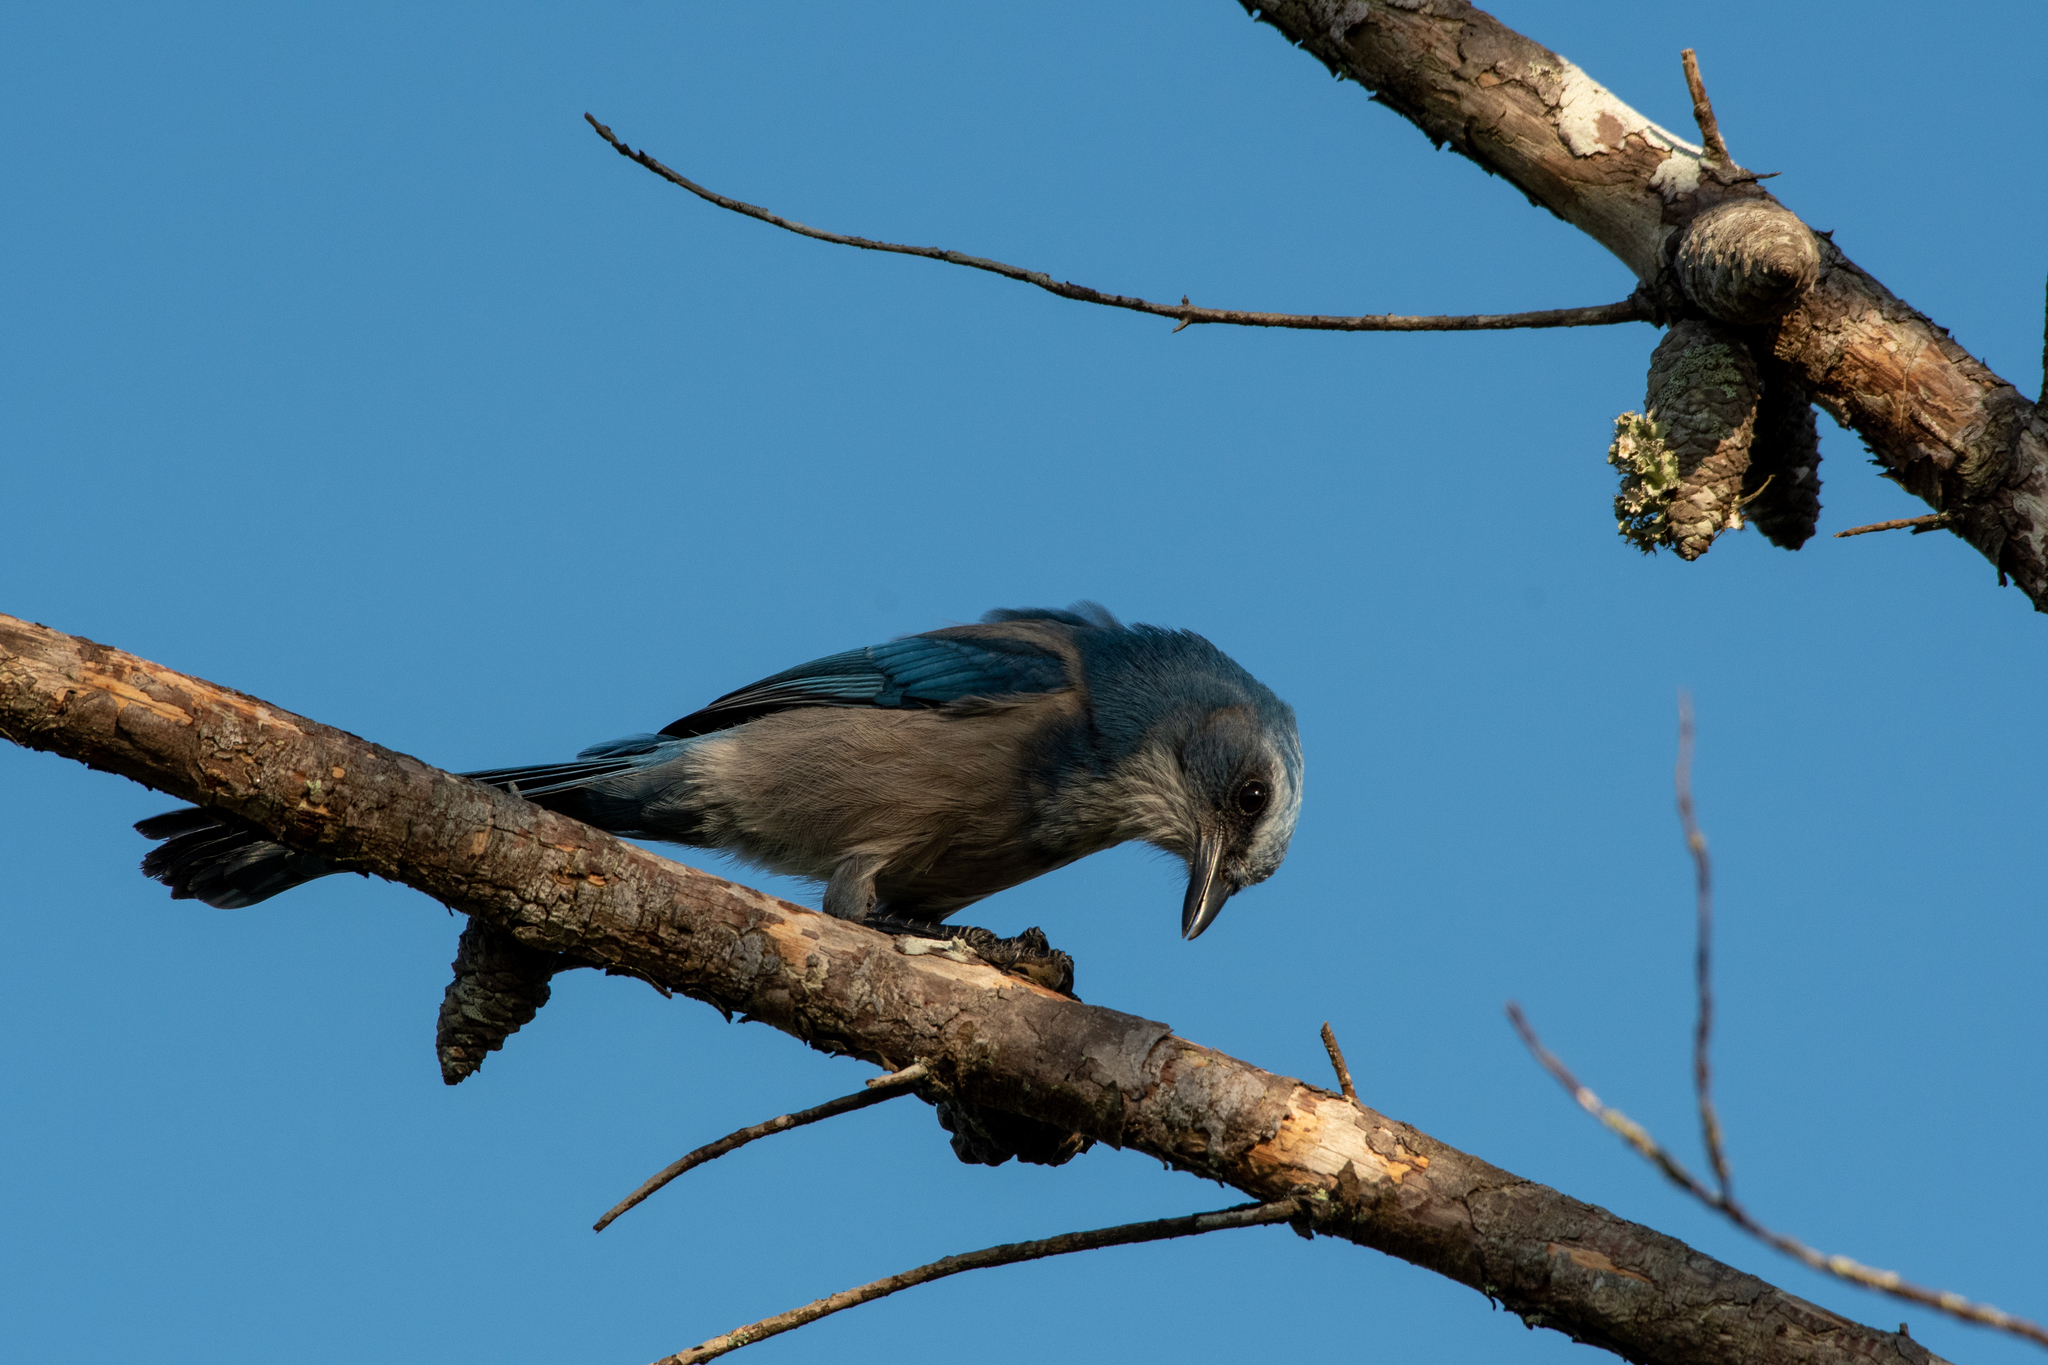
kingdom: Animalia
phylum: Chordata
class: Aves
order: Passeriformes
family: Corvidae
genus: Aphelocoma
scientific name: Aphelocoma coerulescens
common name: Florida scrub jay
